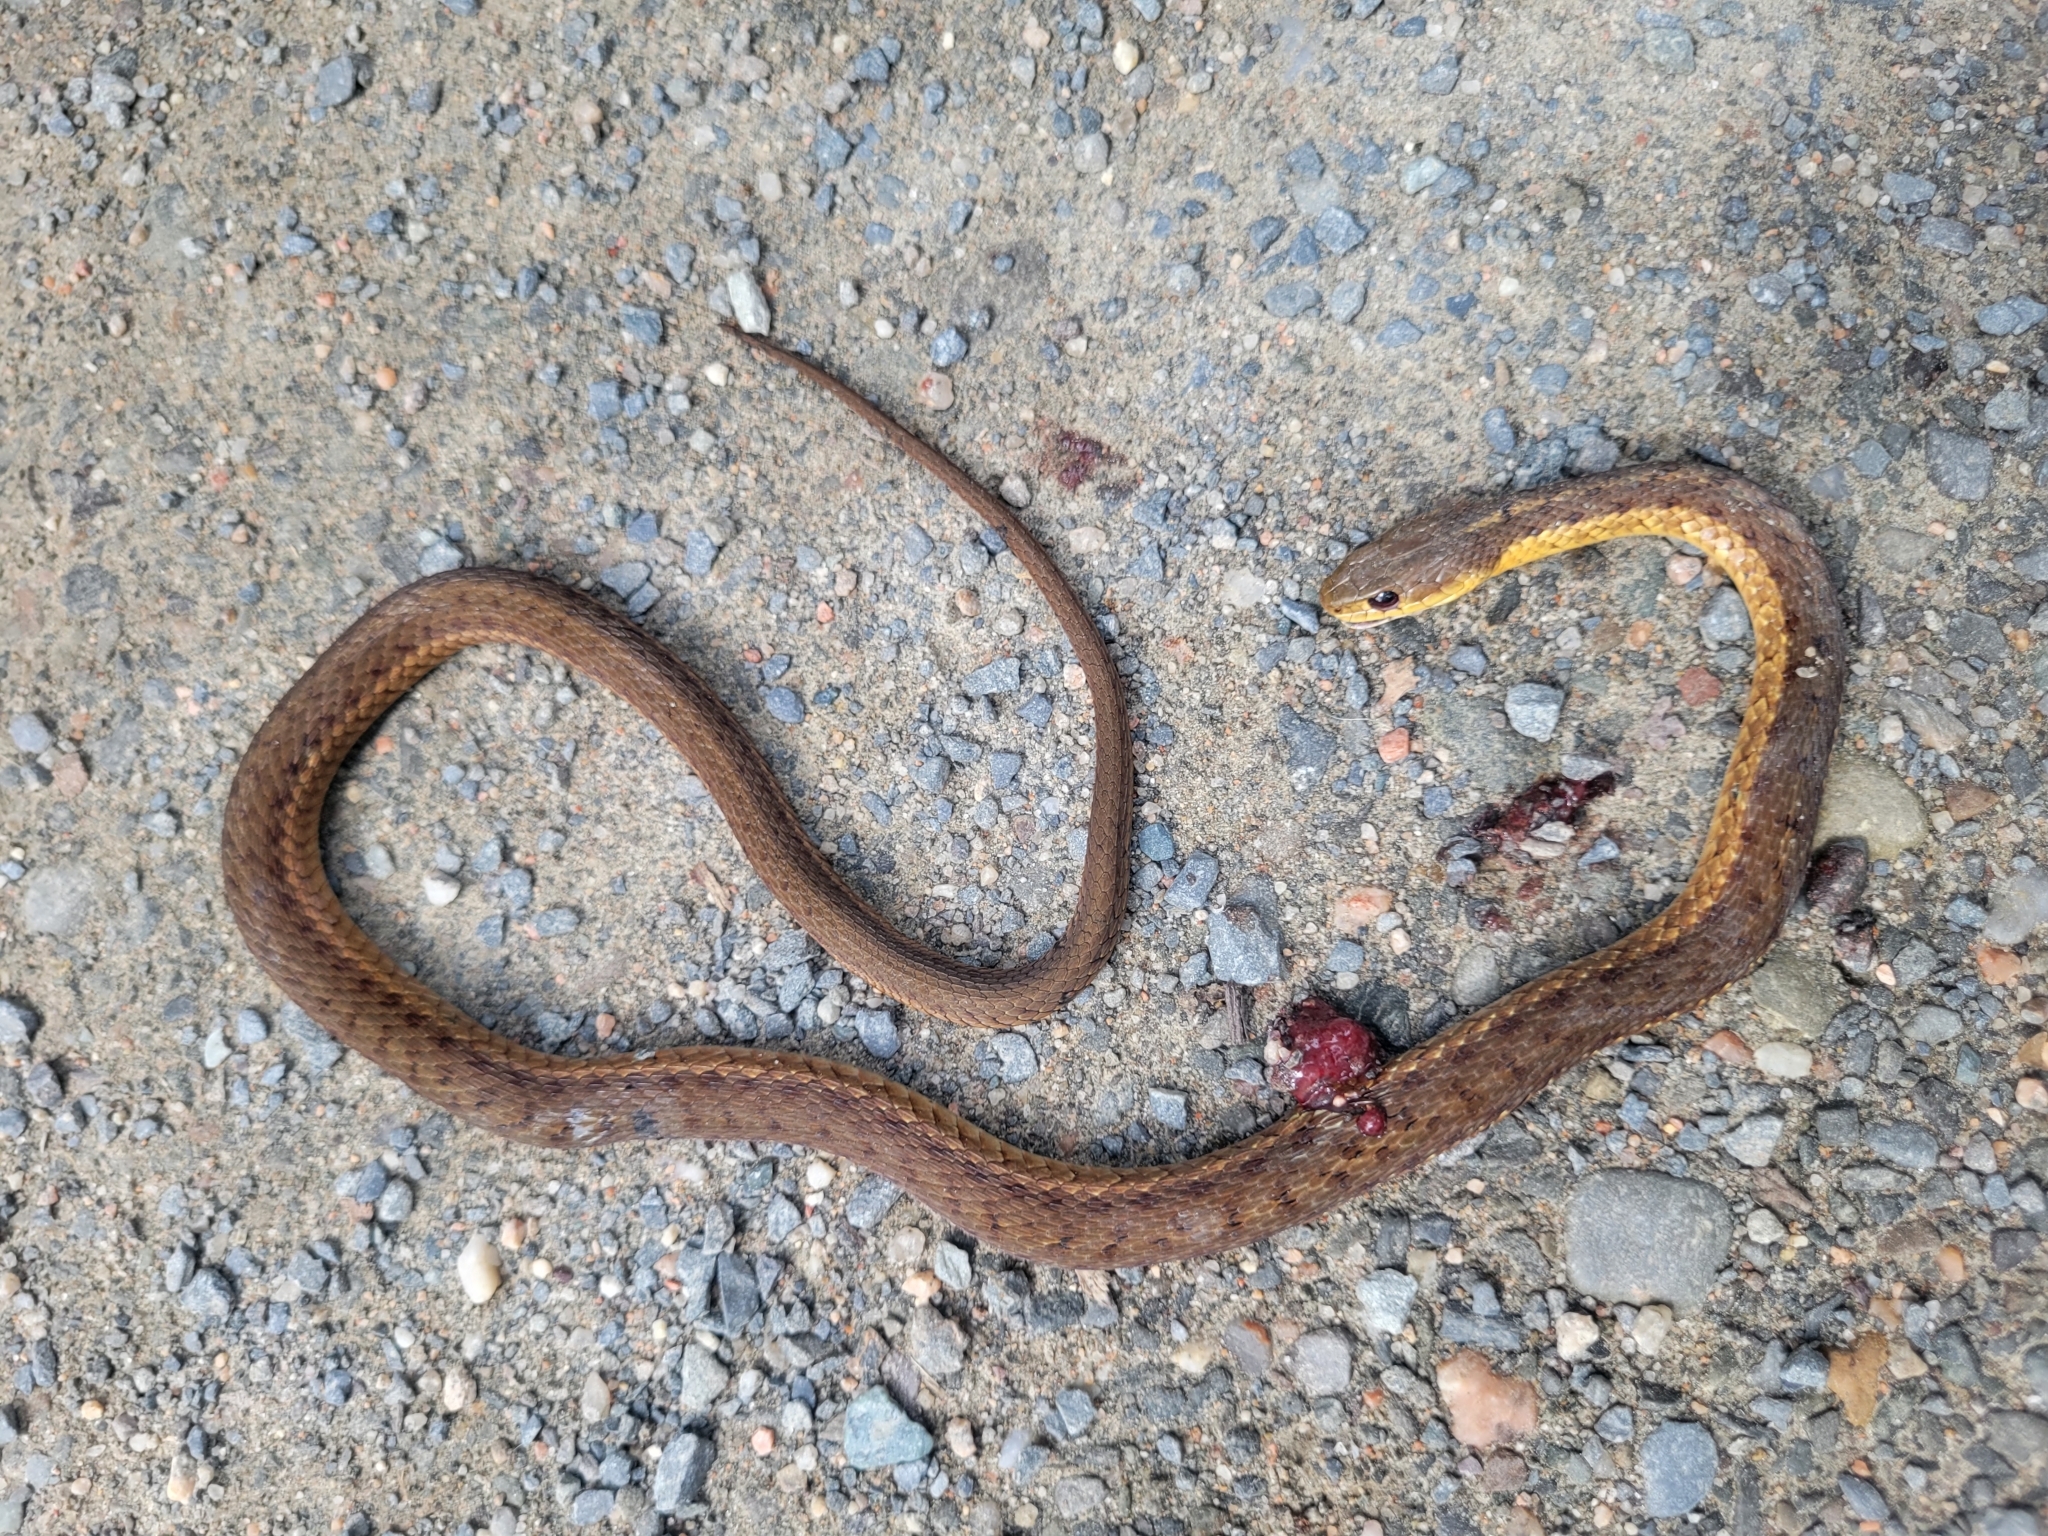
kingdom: Animalia
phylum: Chordata
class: Squamata
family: Colubridae
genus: Thamnophis
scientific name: Thamnophis sirtalis
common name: Common garter snake
